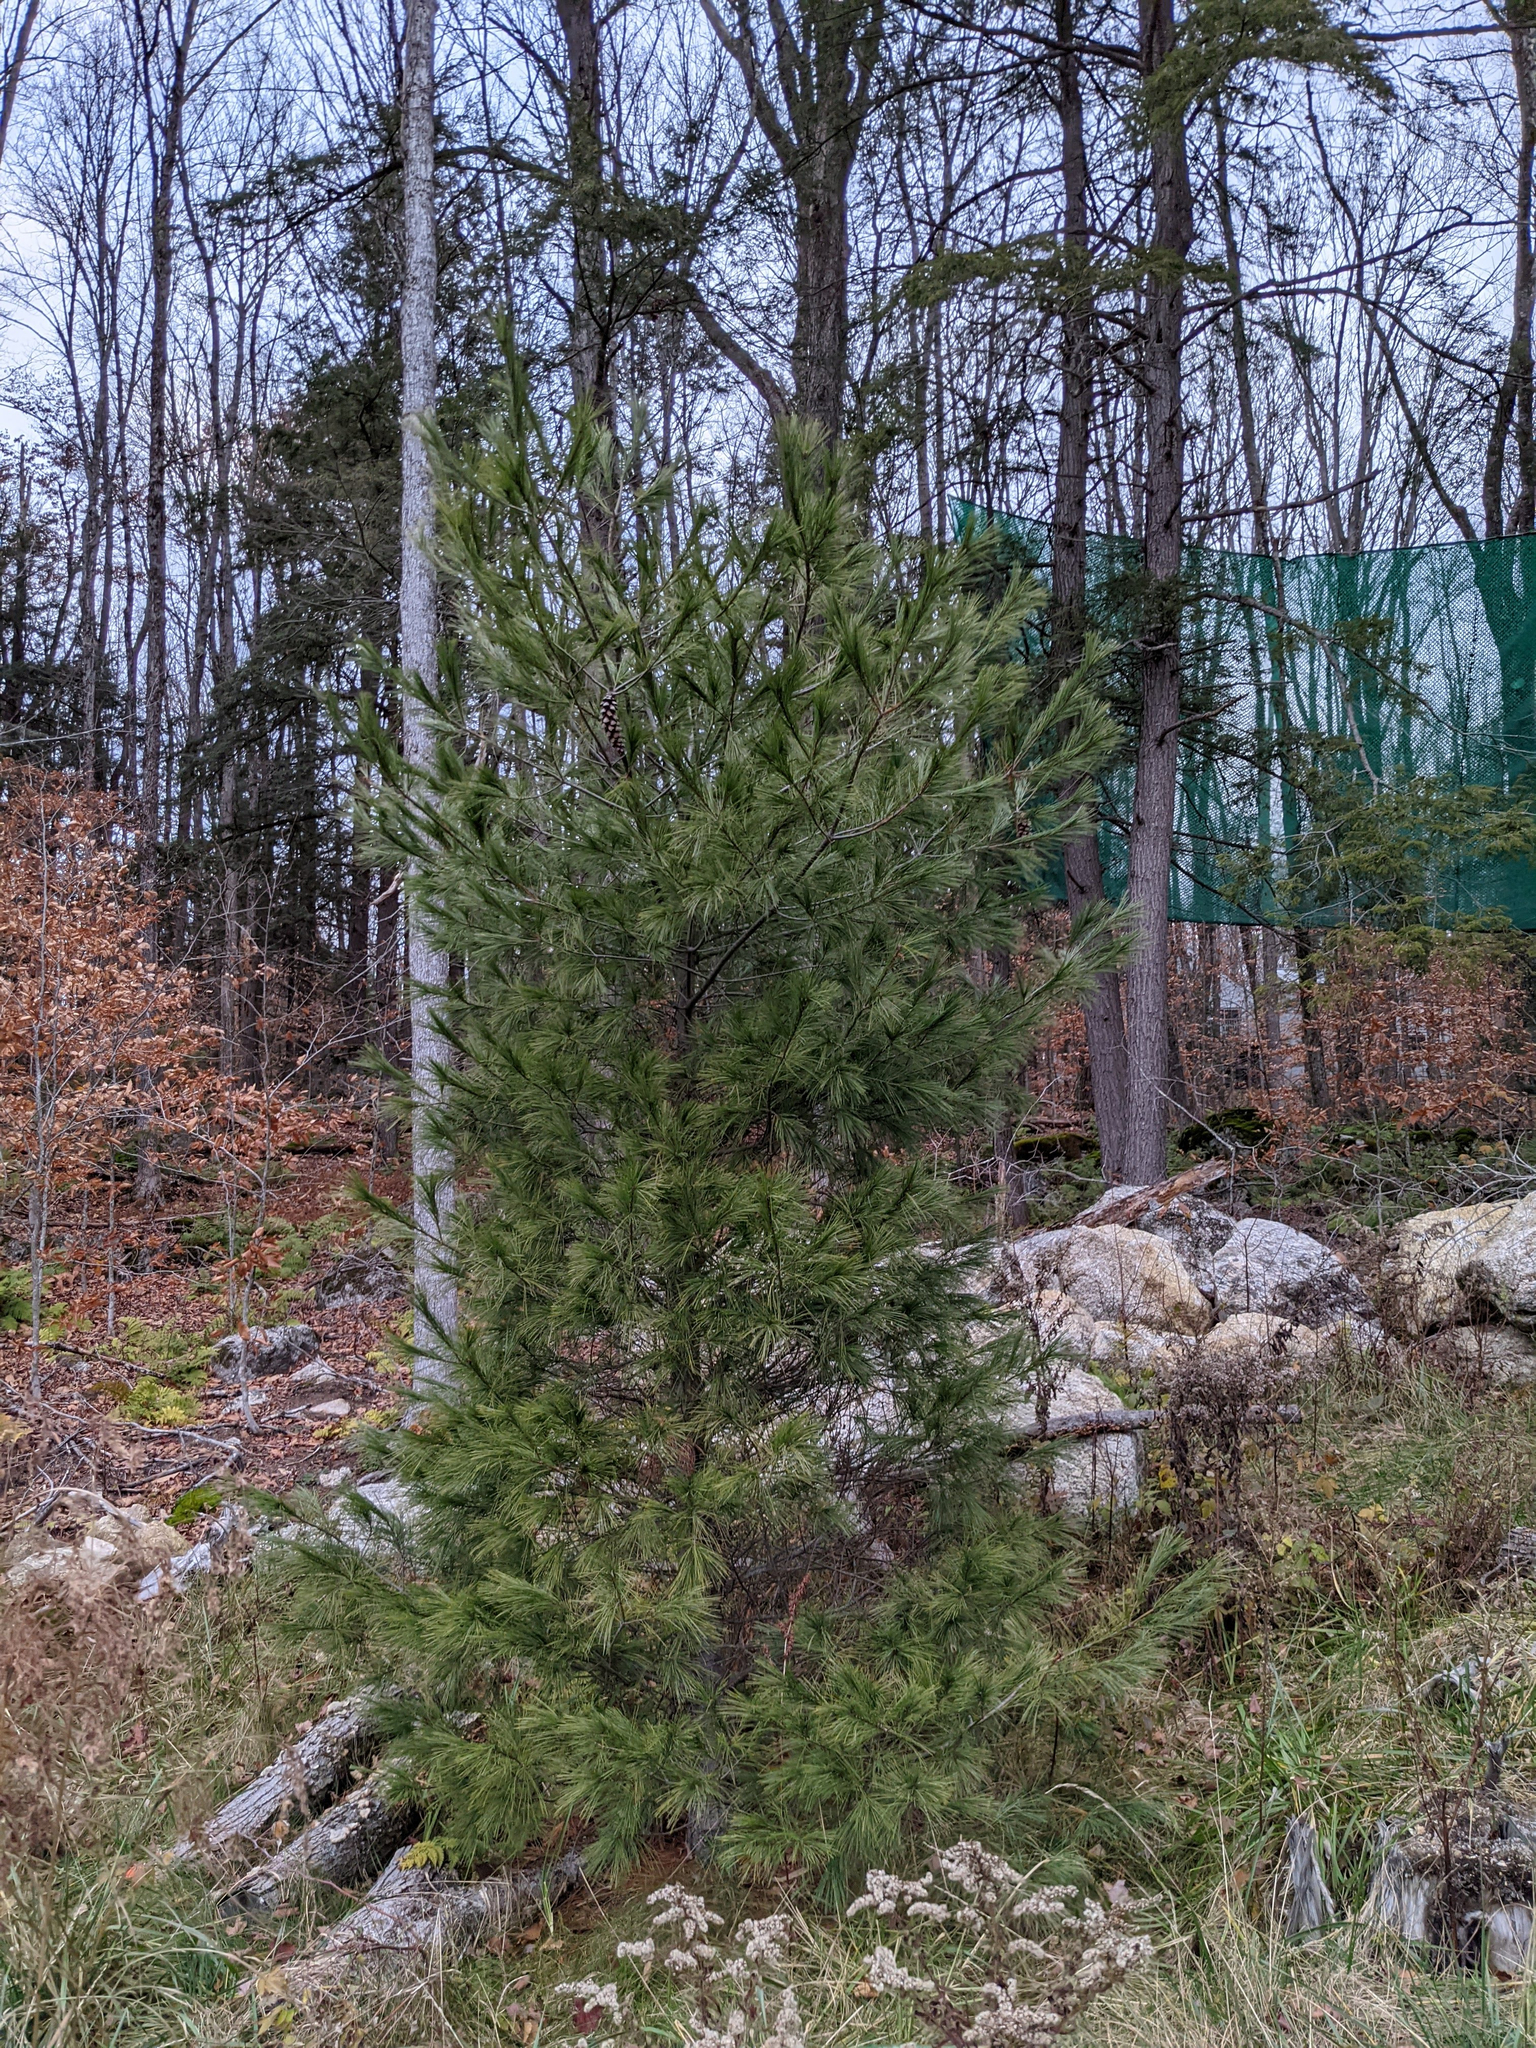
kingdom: Plantae
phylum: Tracheophyta
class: Pinopsida
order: Pinales
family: Pinaceae
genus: Pinus
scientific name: Pinus strobus
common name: Weymouth pine
